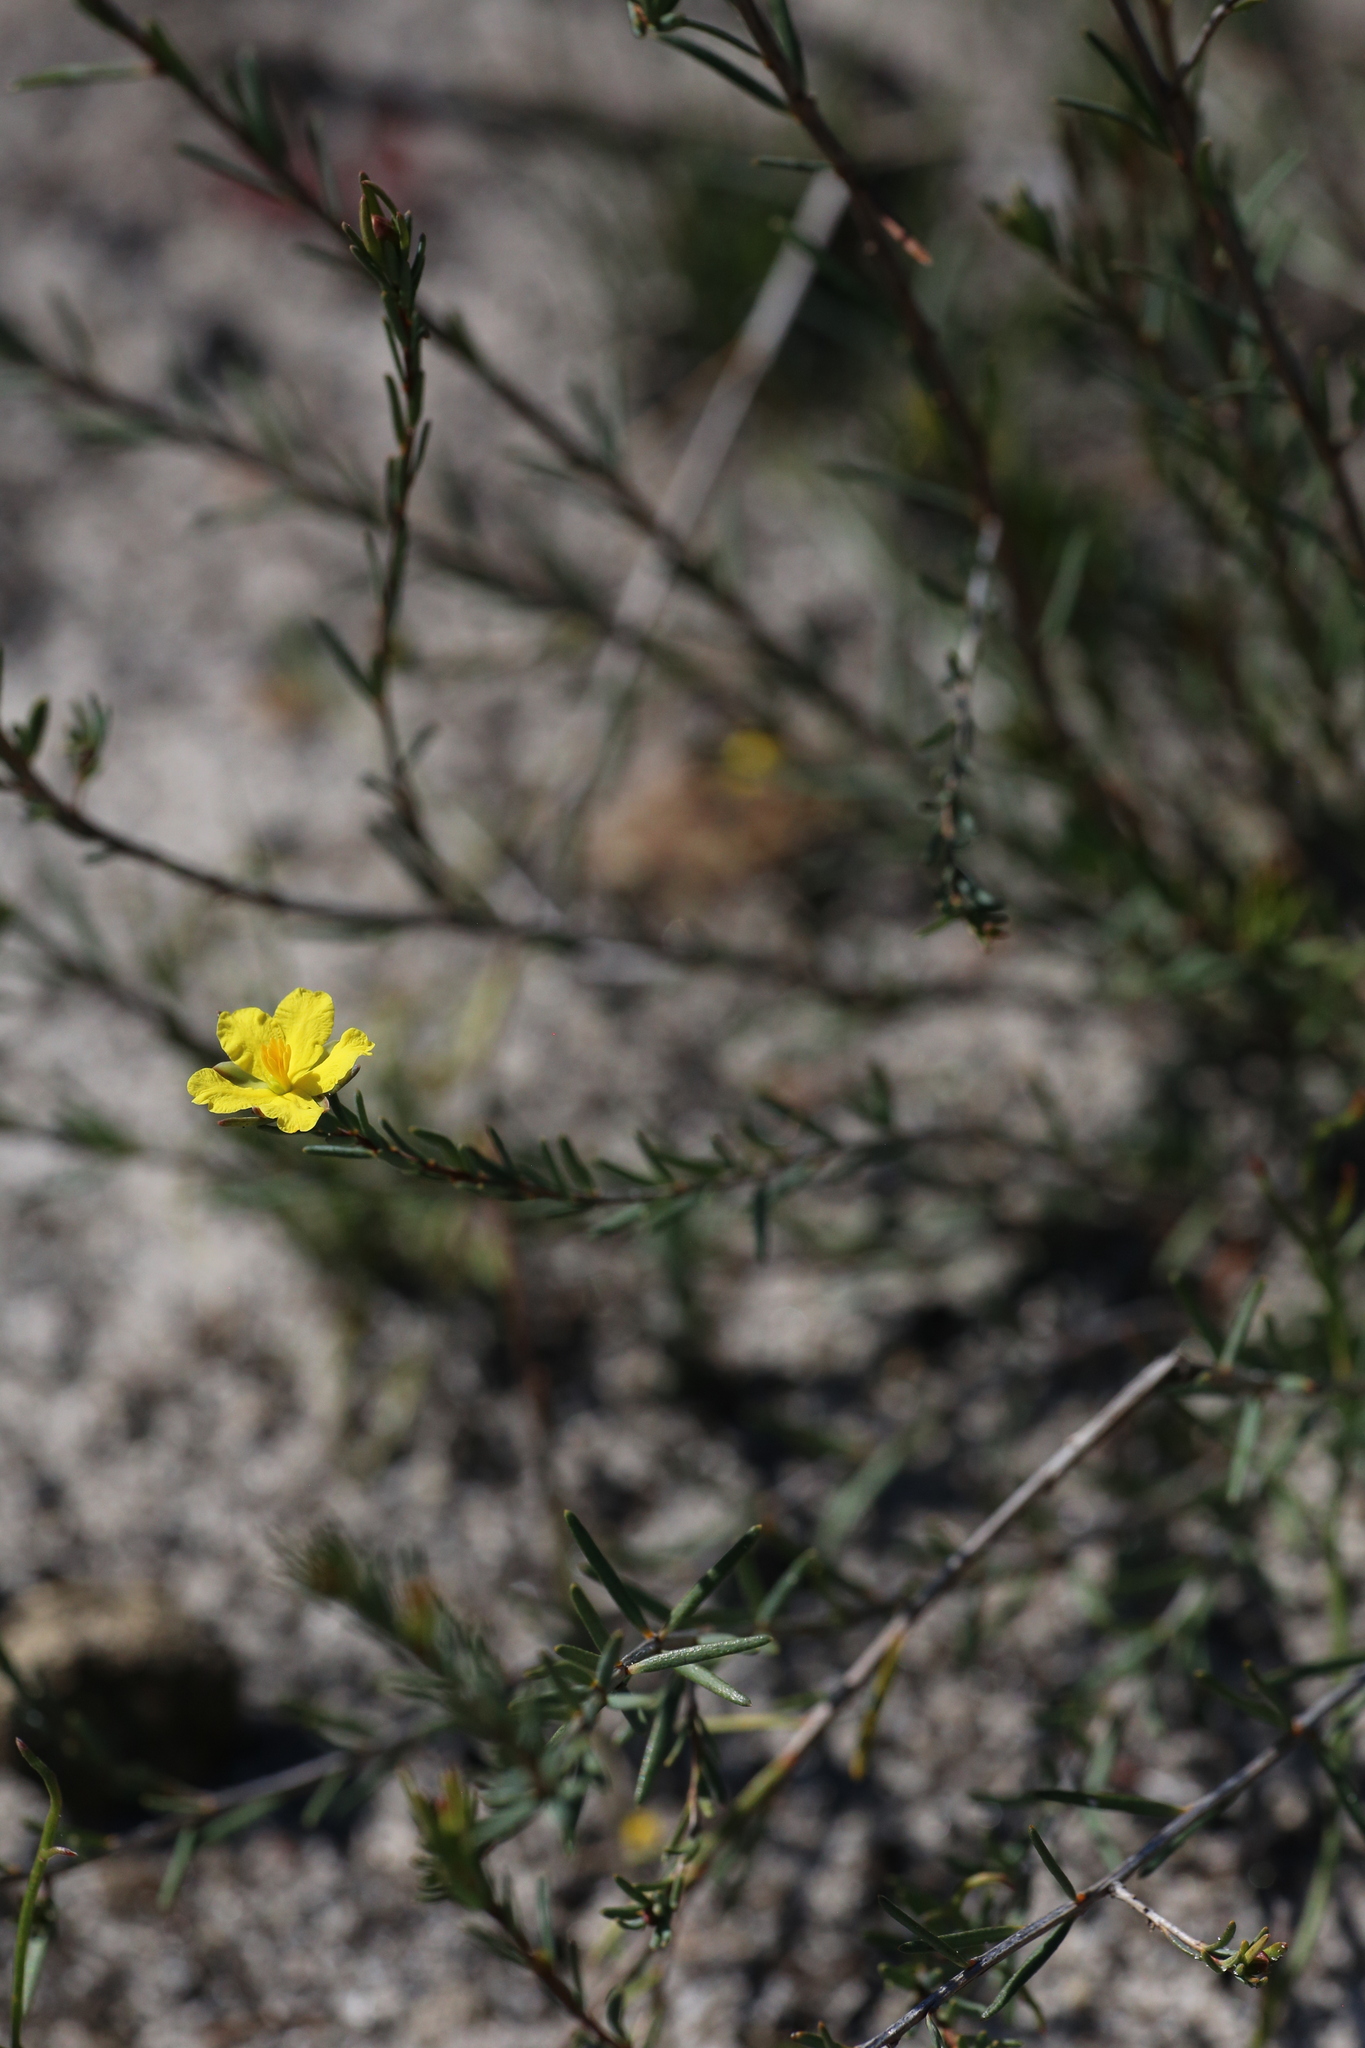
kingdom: Plantae
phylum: Tracheophyta
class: Magnoliopsida
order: Dilleniales
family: Dilleniaceae
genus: Hibbertia
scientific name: Hibbertia oligantha
